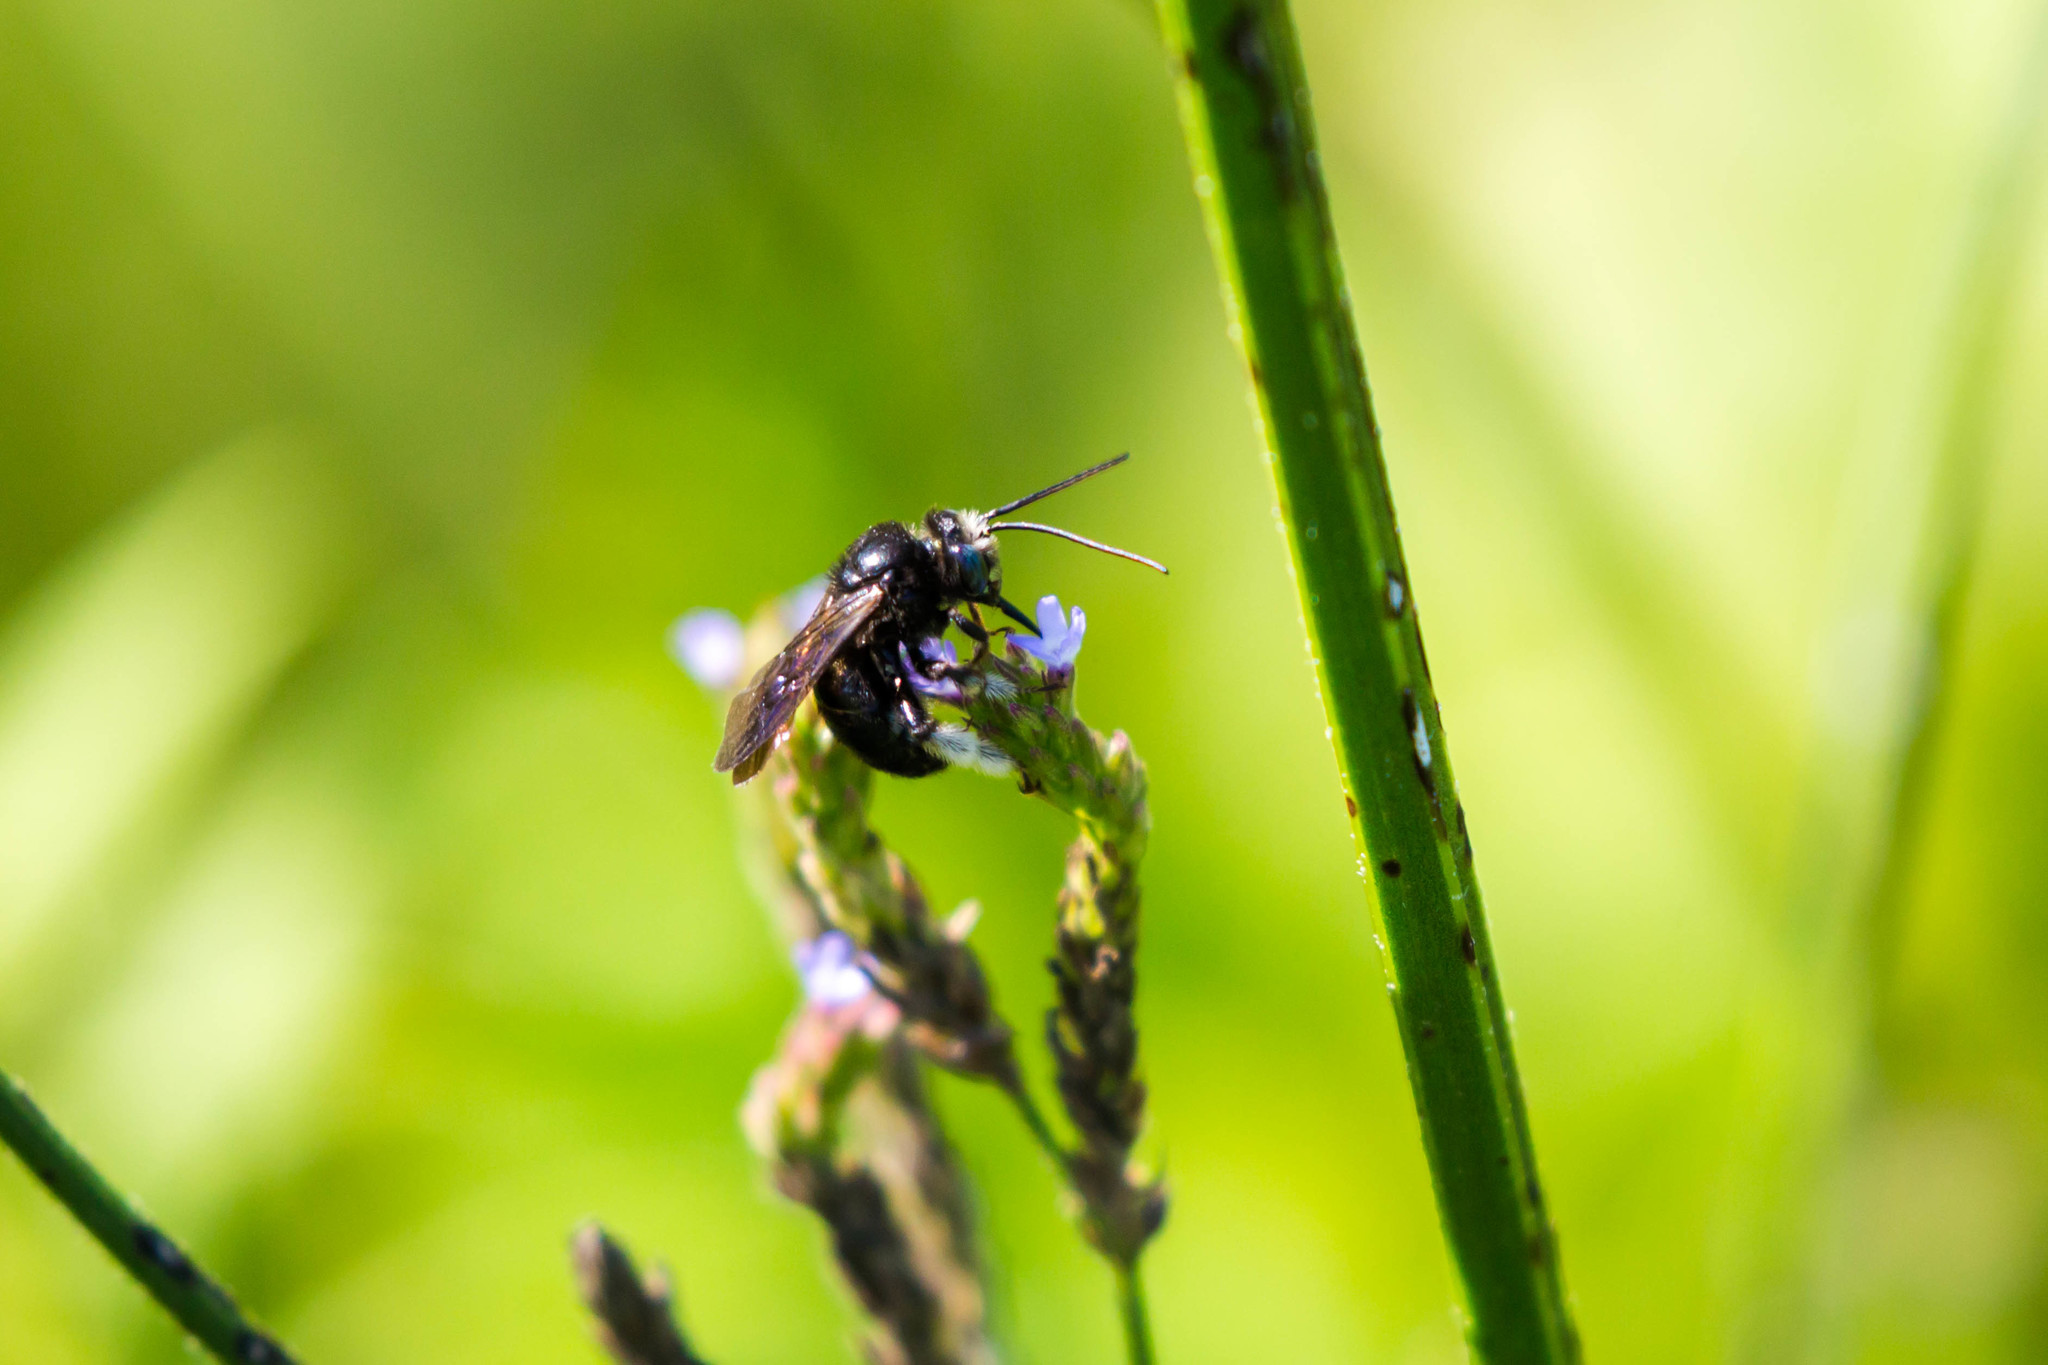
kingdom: Animalia
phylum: Arthropoda
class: Insecta
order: Hymenoptera
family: Apidae
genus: Melissodes
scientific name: Melissodes bimaculatus
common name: Two-spotted long-horned bee
